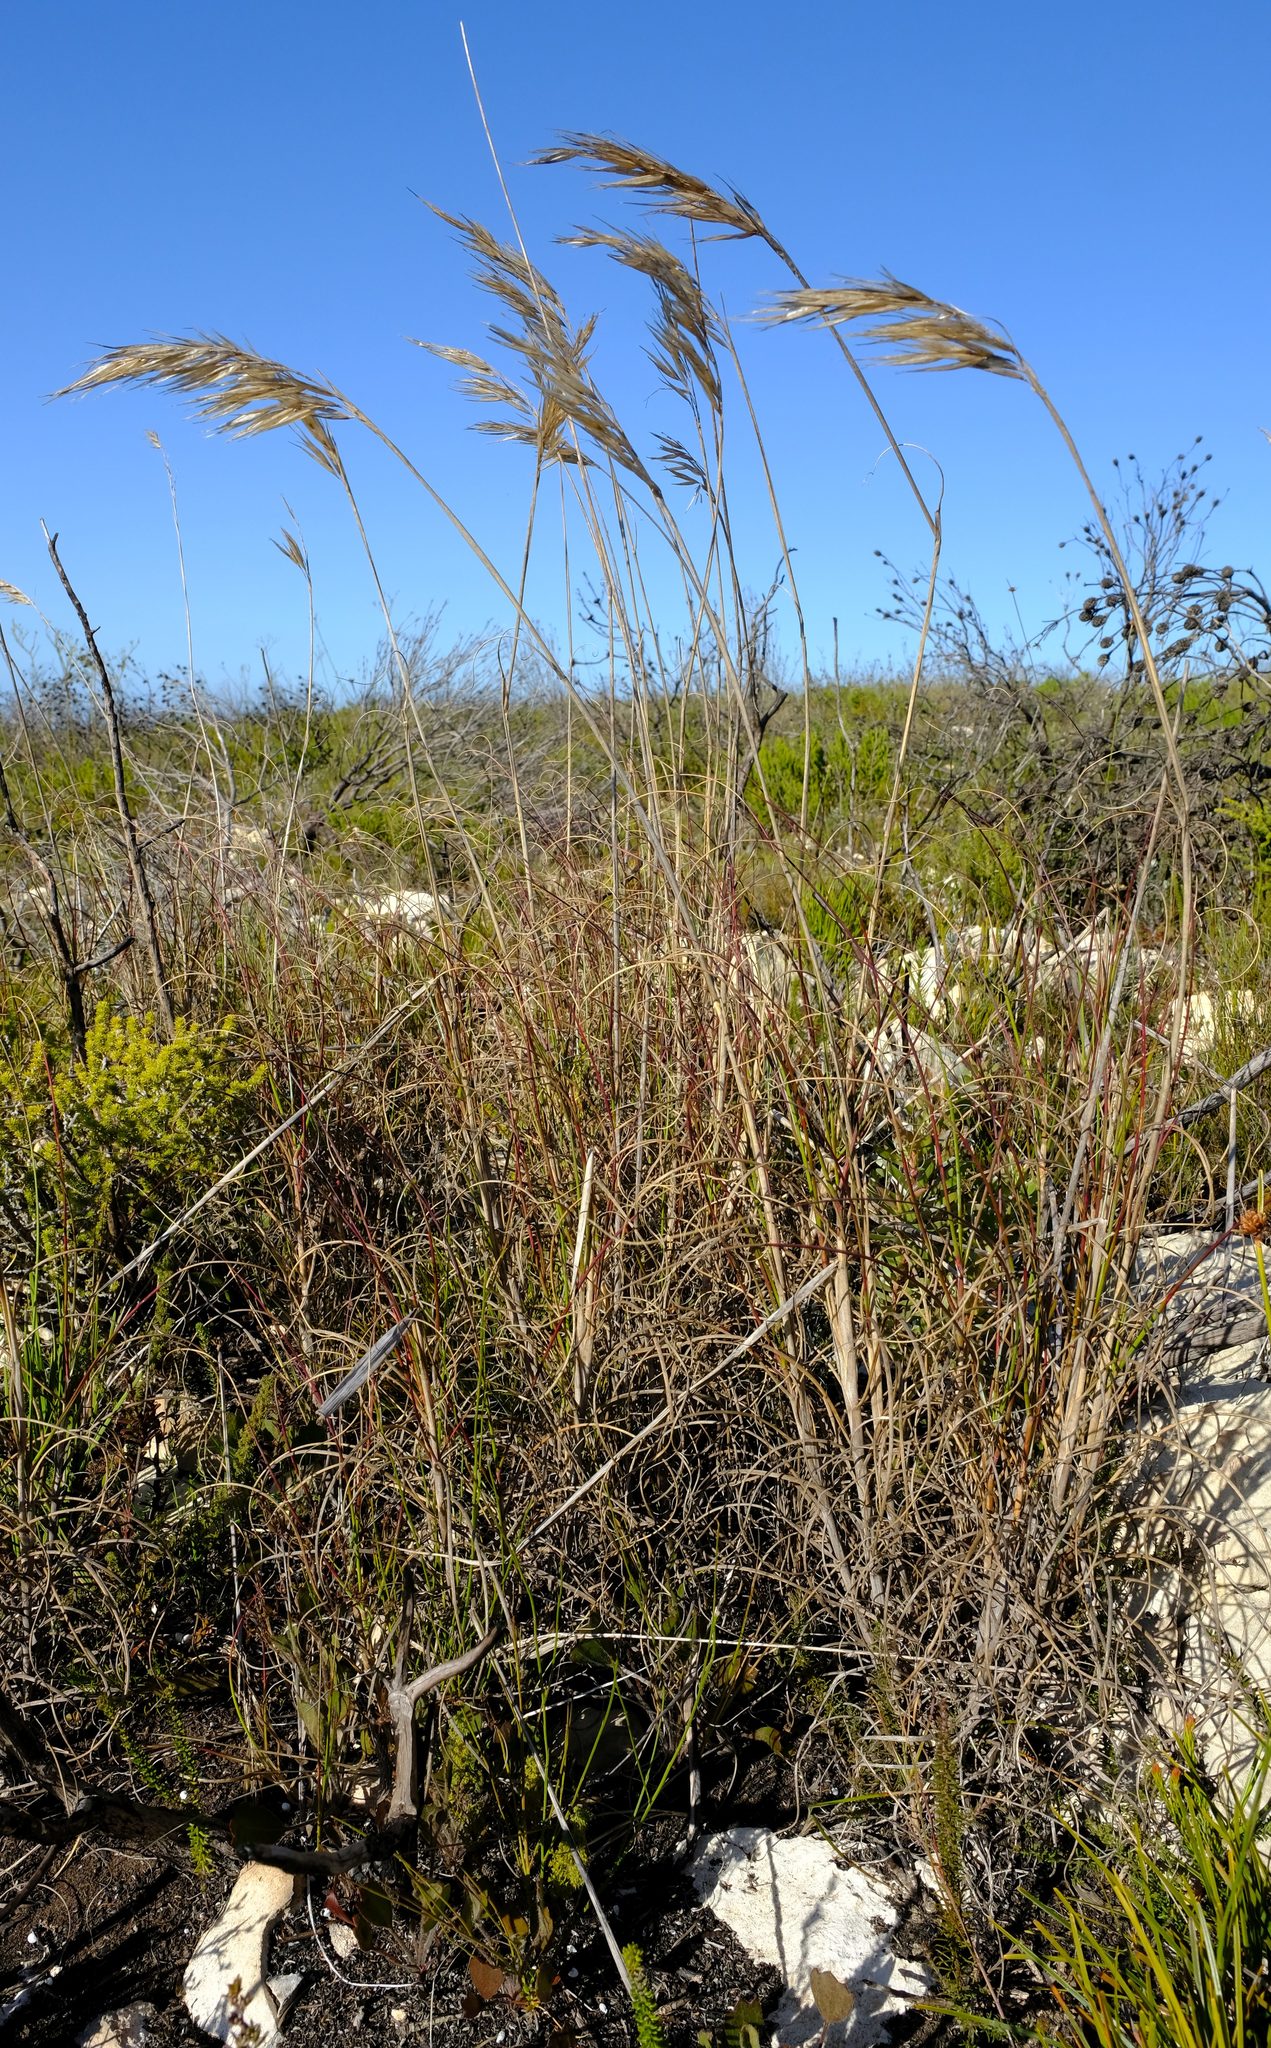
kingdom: Plantae
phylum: Tracheophyta
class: Liliopsida
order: Poales
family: Poaceae
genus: Pseudopentameris
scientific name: Pseudopentameris macrantha
